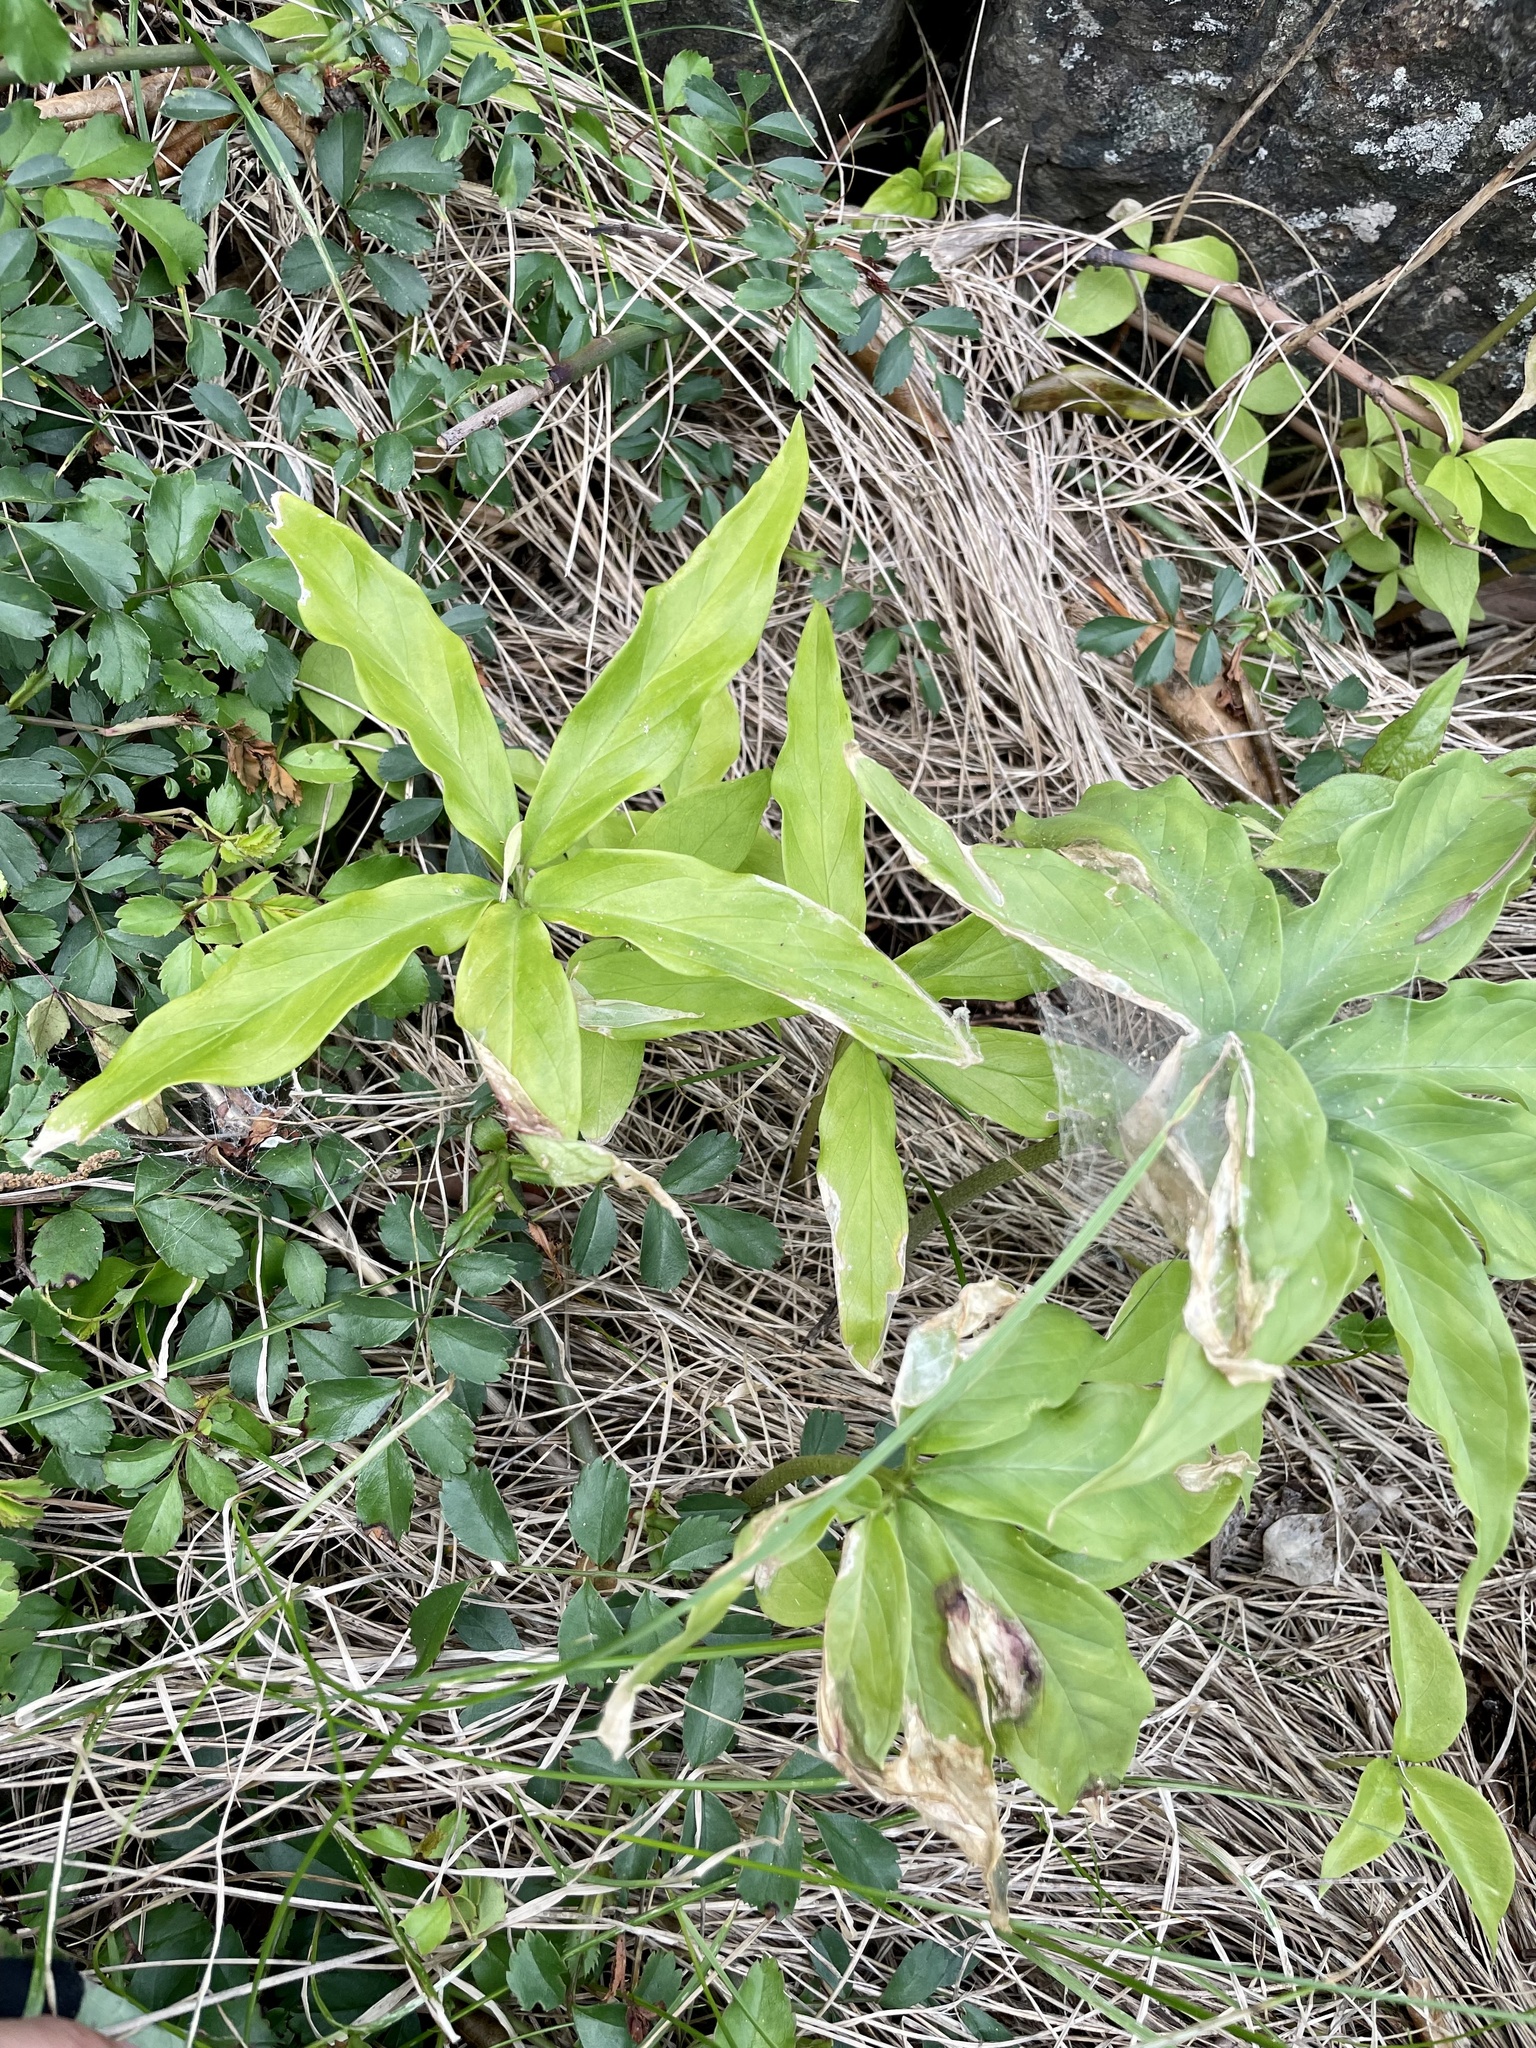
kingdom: Plantae
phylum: Tracheophyta
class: Liliopsida
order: Alismatales
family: Araceae
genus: Arisaema
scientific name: Arisaema thunbergii
